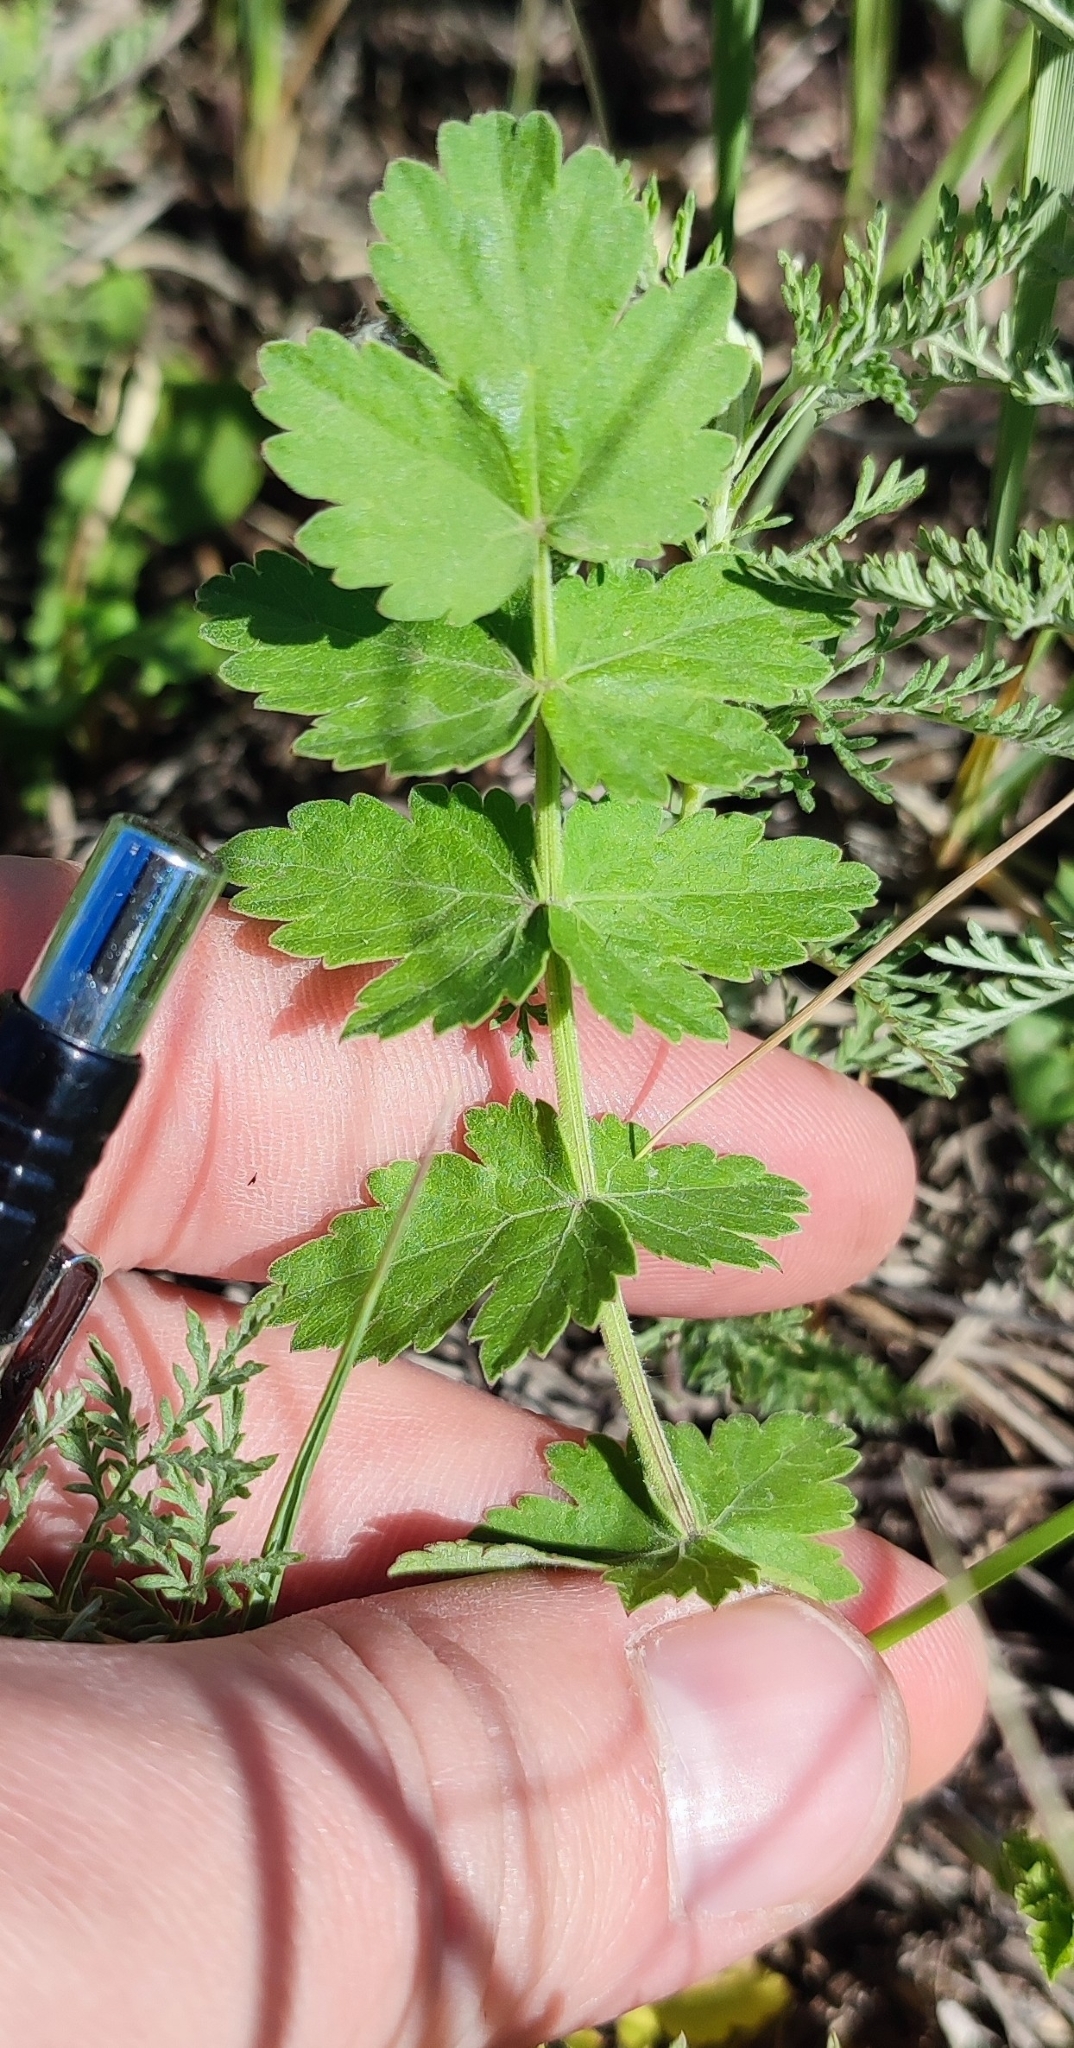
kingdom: Plantae
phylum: Tracheophyta
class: Magnoliopsida
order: Apiales
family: Apiaceae
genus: Pimpinella
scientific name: Pimpinella saxifraga
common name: Burnet-saxifrage
